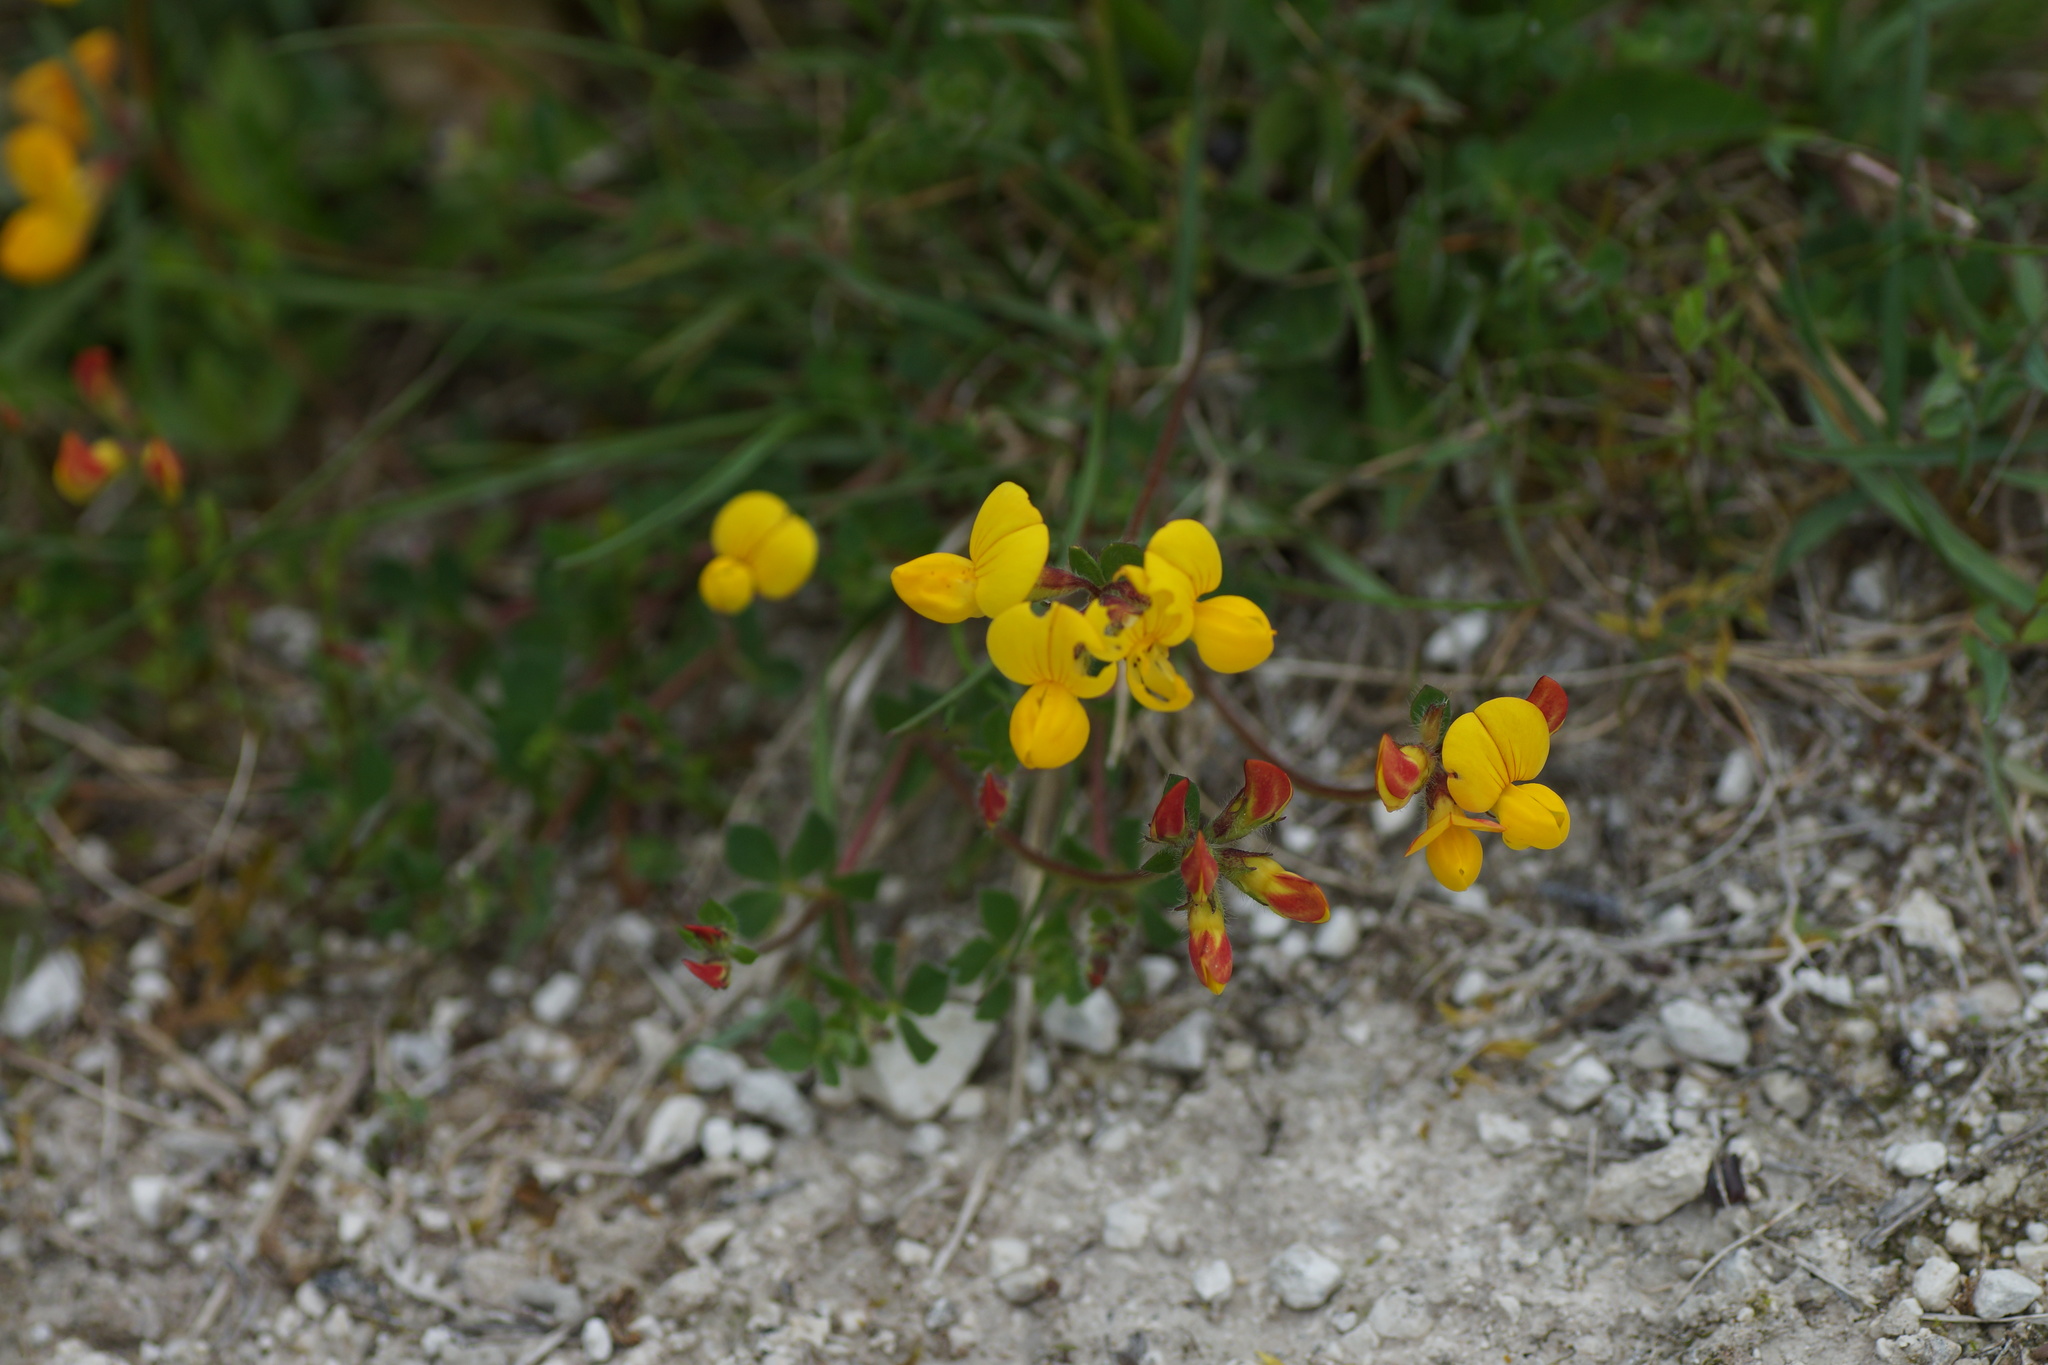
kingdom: Plantae
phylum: Tracheophyta
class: Magnoliopsida
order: Fabales
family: Fabaceae
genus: Lotus
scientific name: Lotus corniculatus
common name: Common bird's-foot-trefoil
